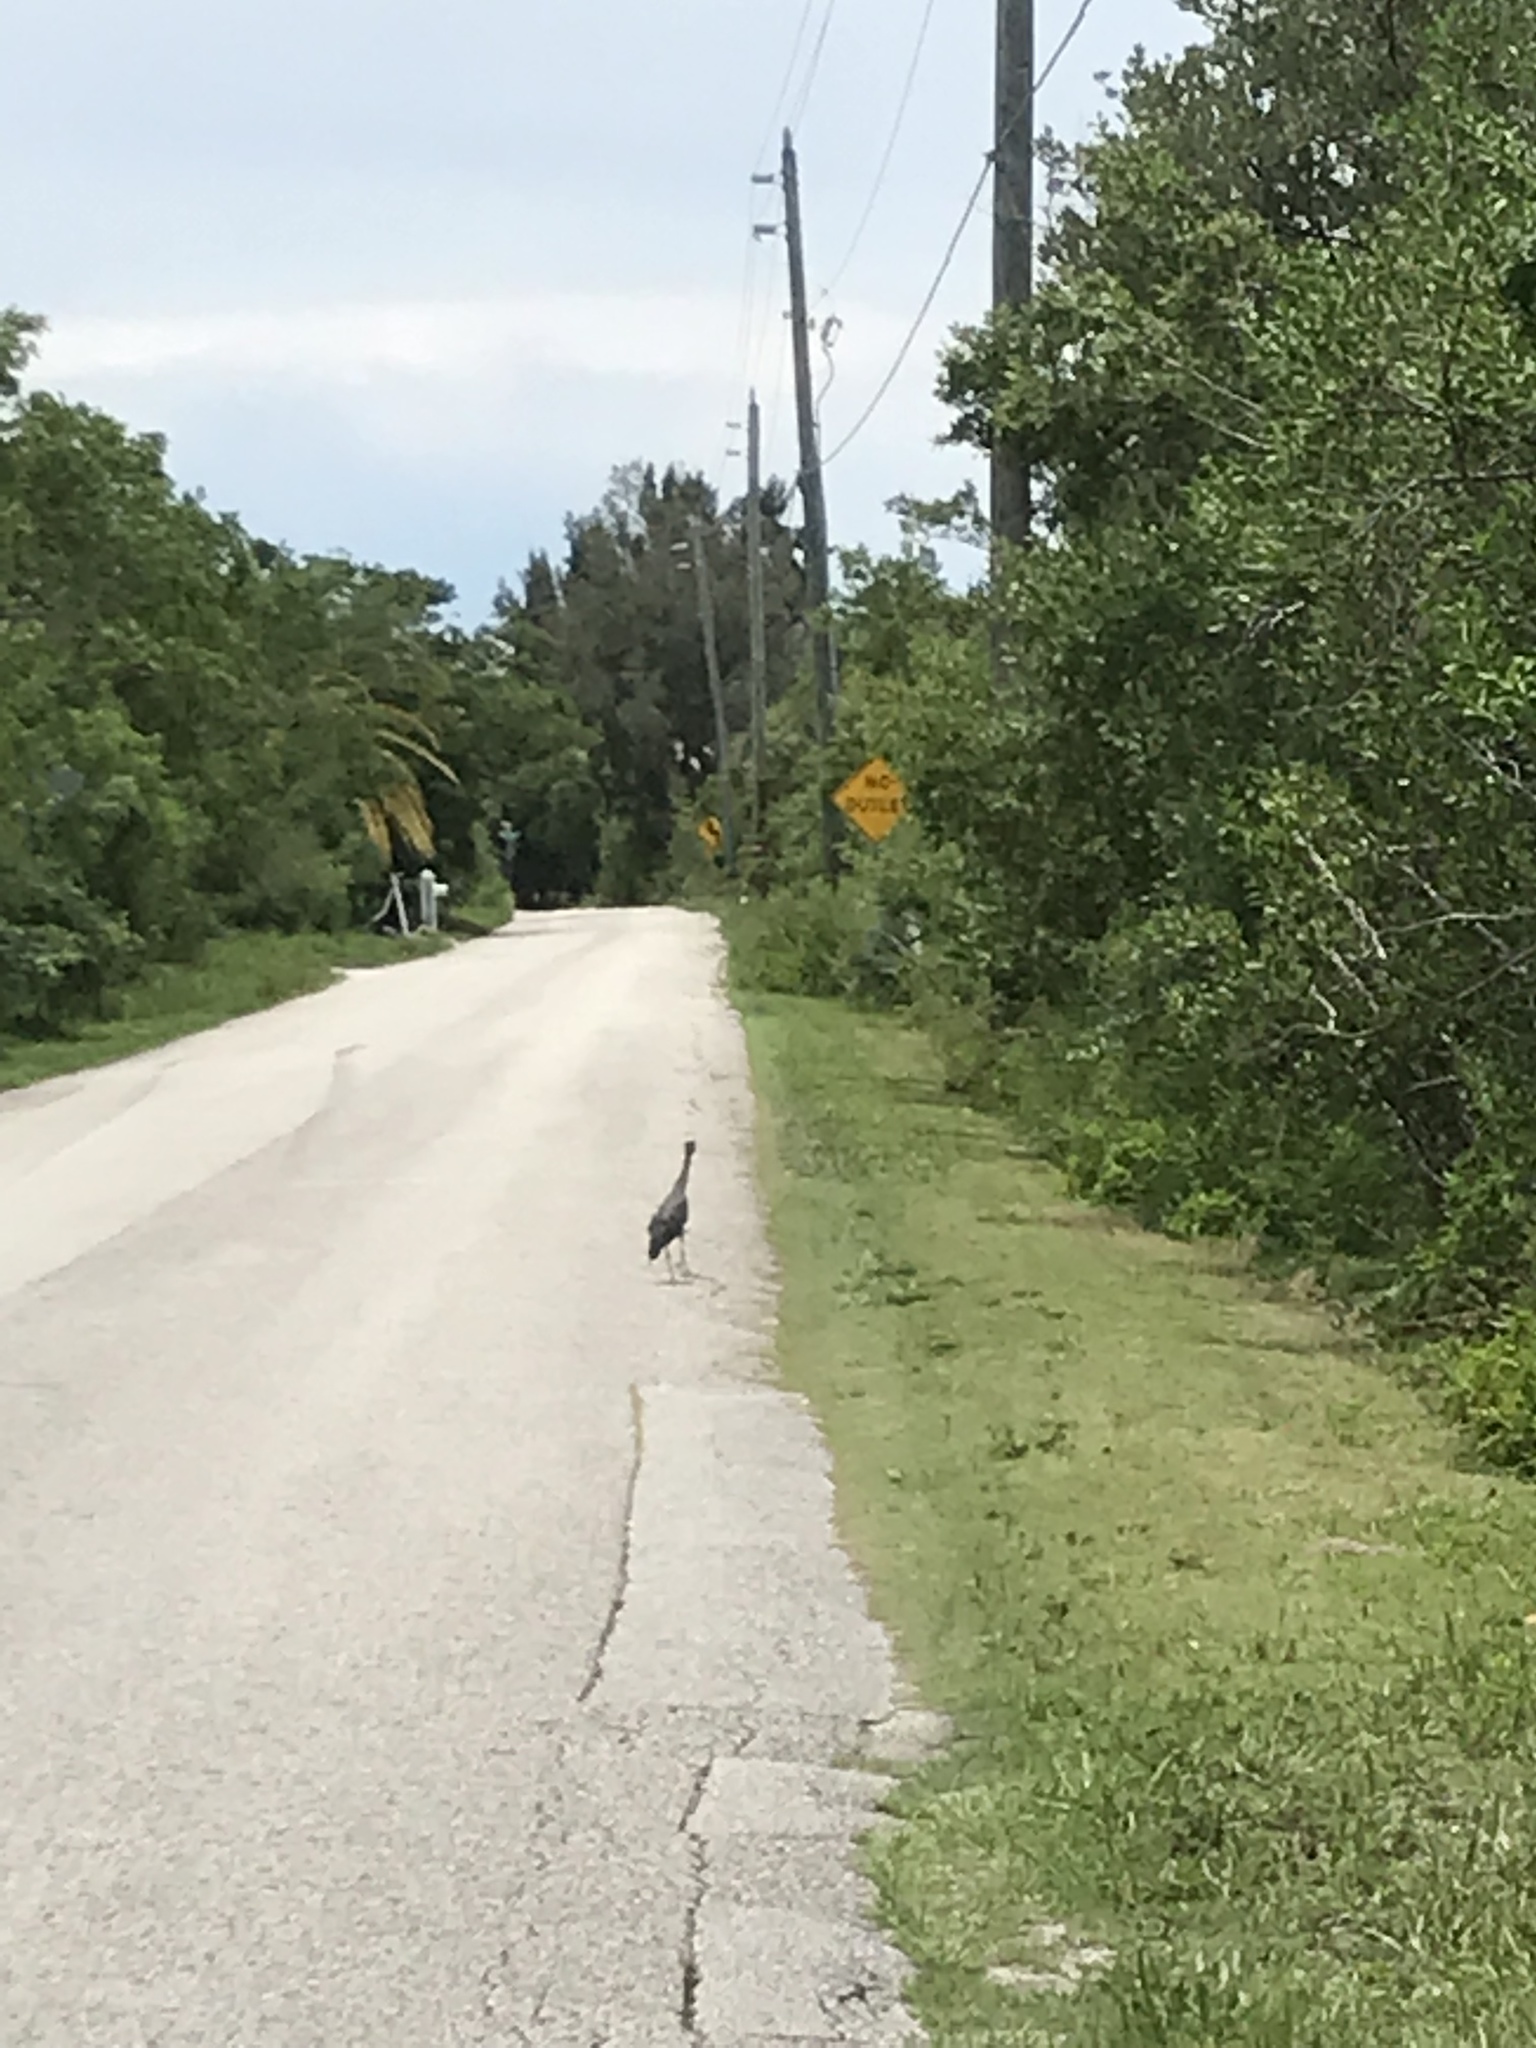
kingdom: Animalia
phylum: Chordata
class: Aves
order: Pelecaniformes
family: Ardeidae
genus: Nyctanassa
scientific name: Nyctanassa violacea
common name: Yellow-crowned night heron
